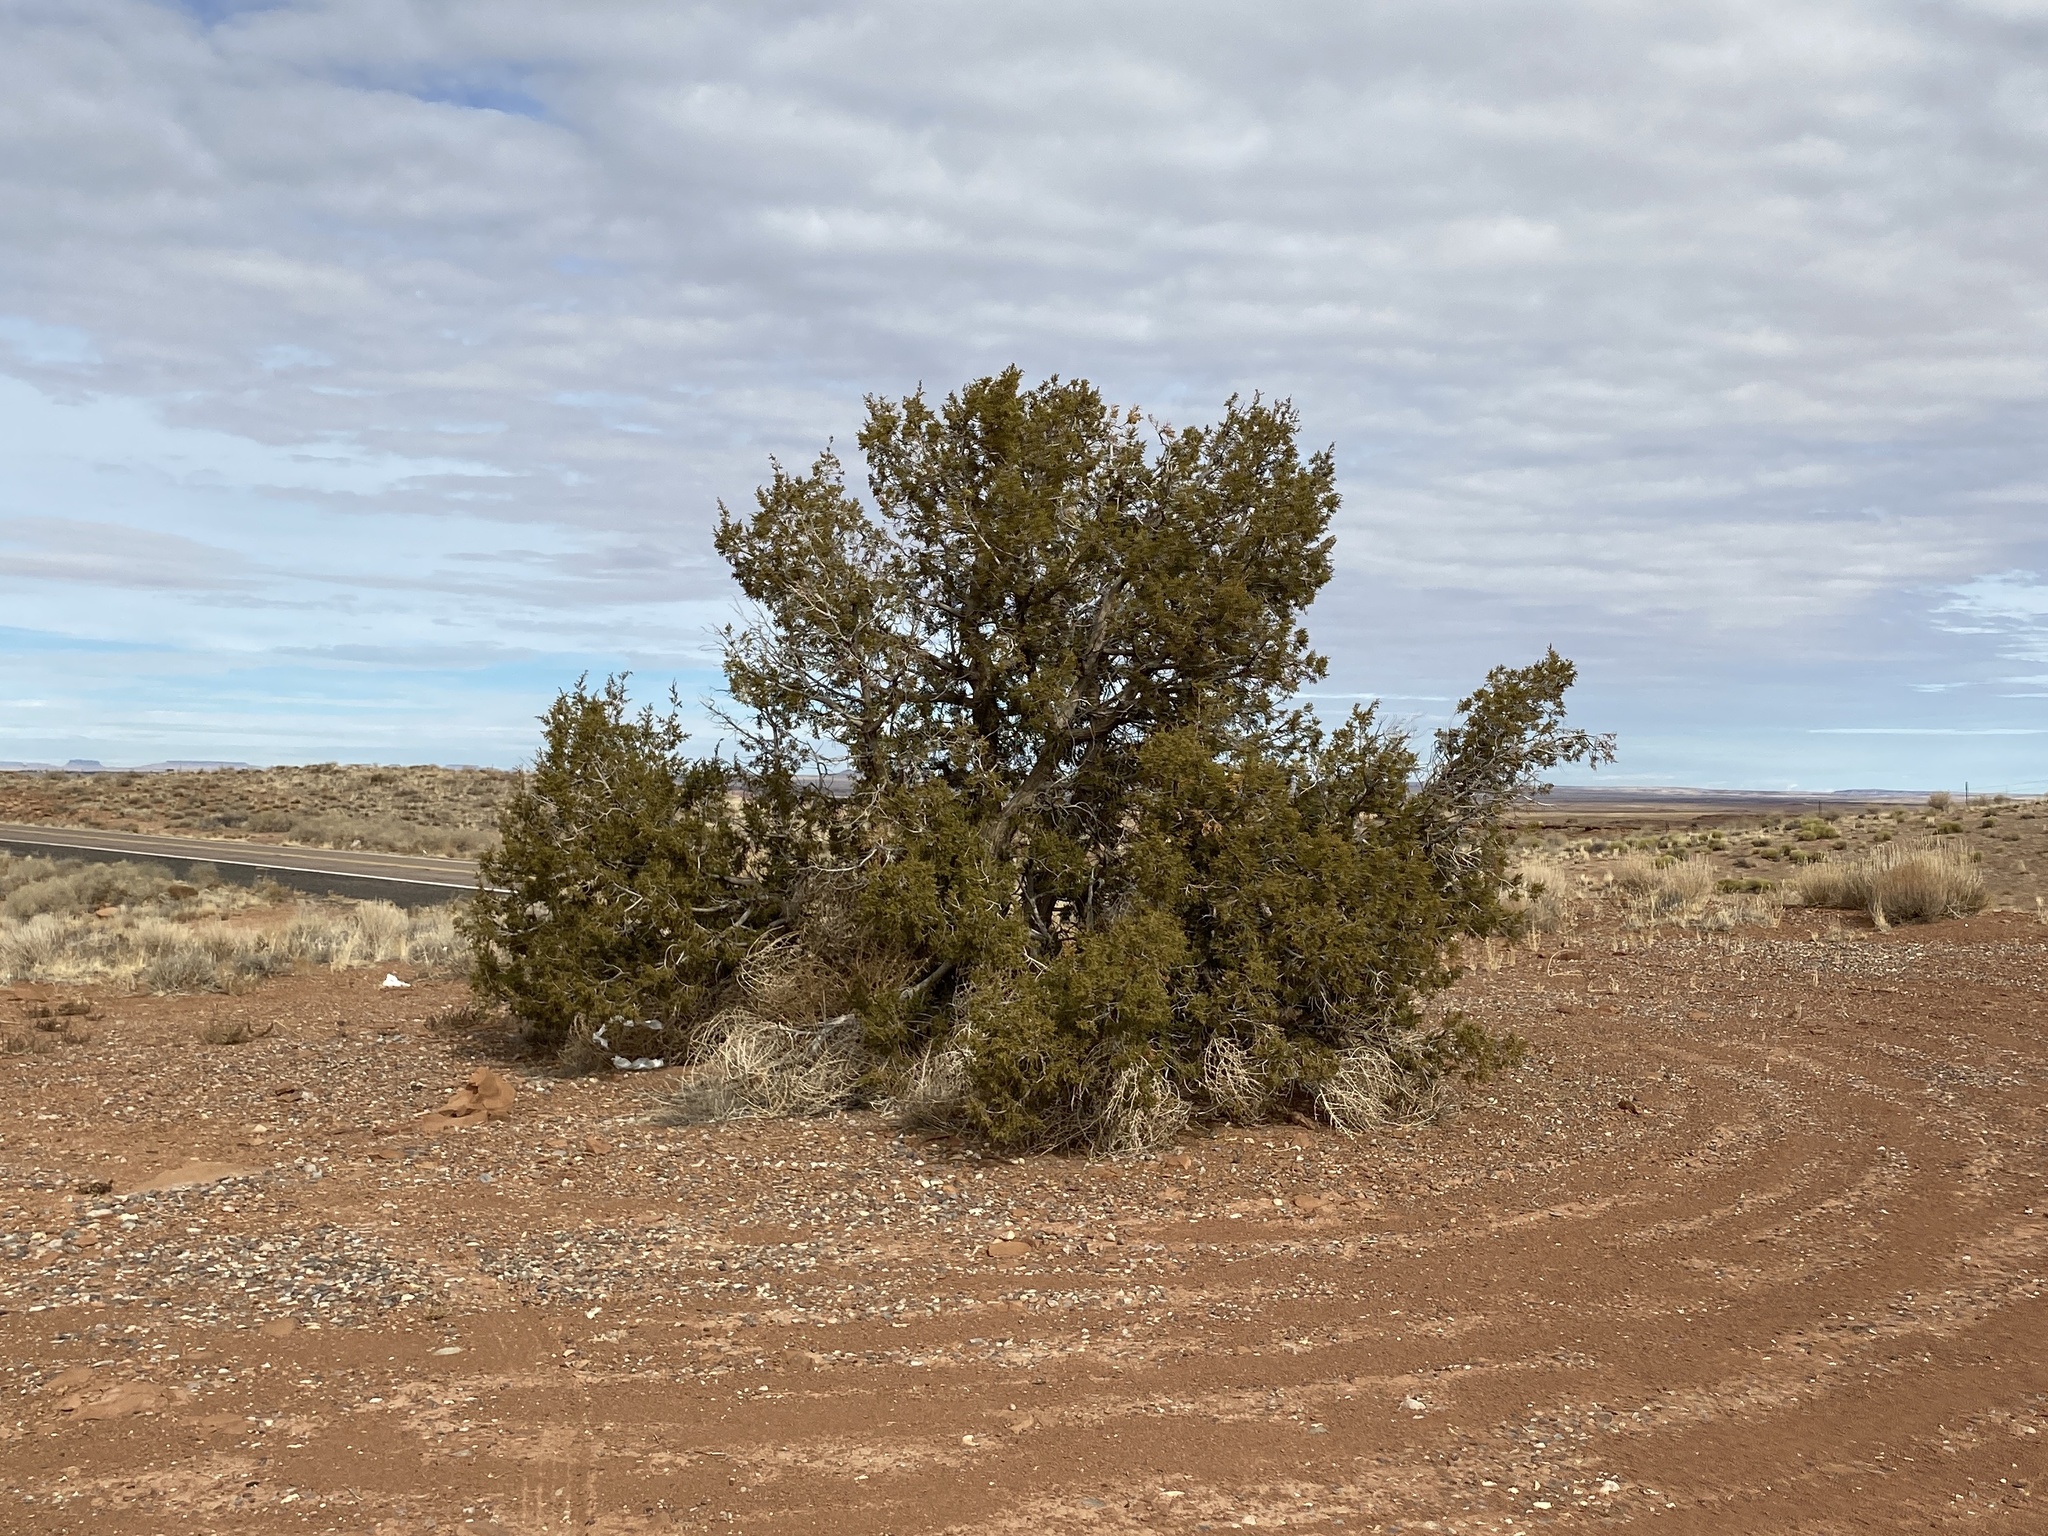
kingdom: Plantae
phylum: Tracheophyta
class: Pinopsida
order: Pinales
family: Cupressaceae
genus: Juniperus
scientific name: Juniperus monosperma
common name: One-seed juniper
